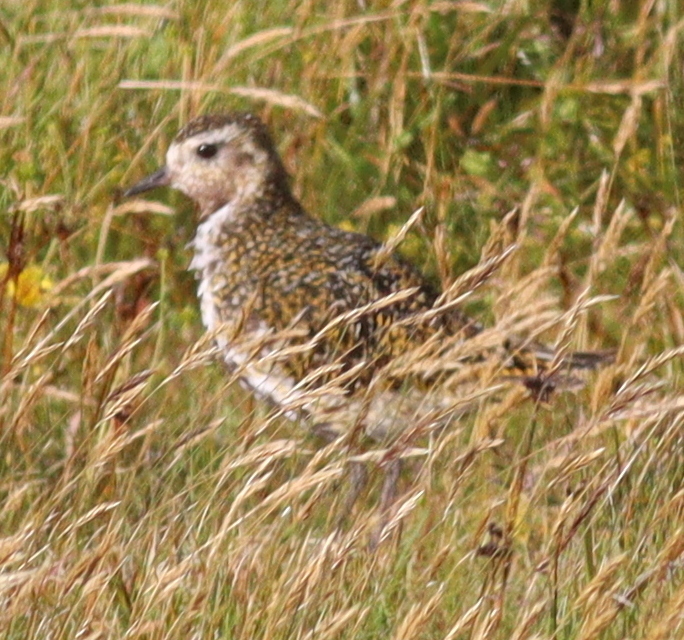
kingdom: Animalia
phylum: Chordata
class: Aves
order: Charadriiformes
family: Charadriidae
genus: Pluvialis
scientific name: Pluvialis apricaria
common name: European golden plover
